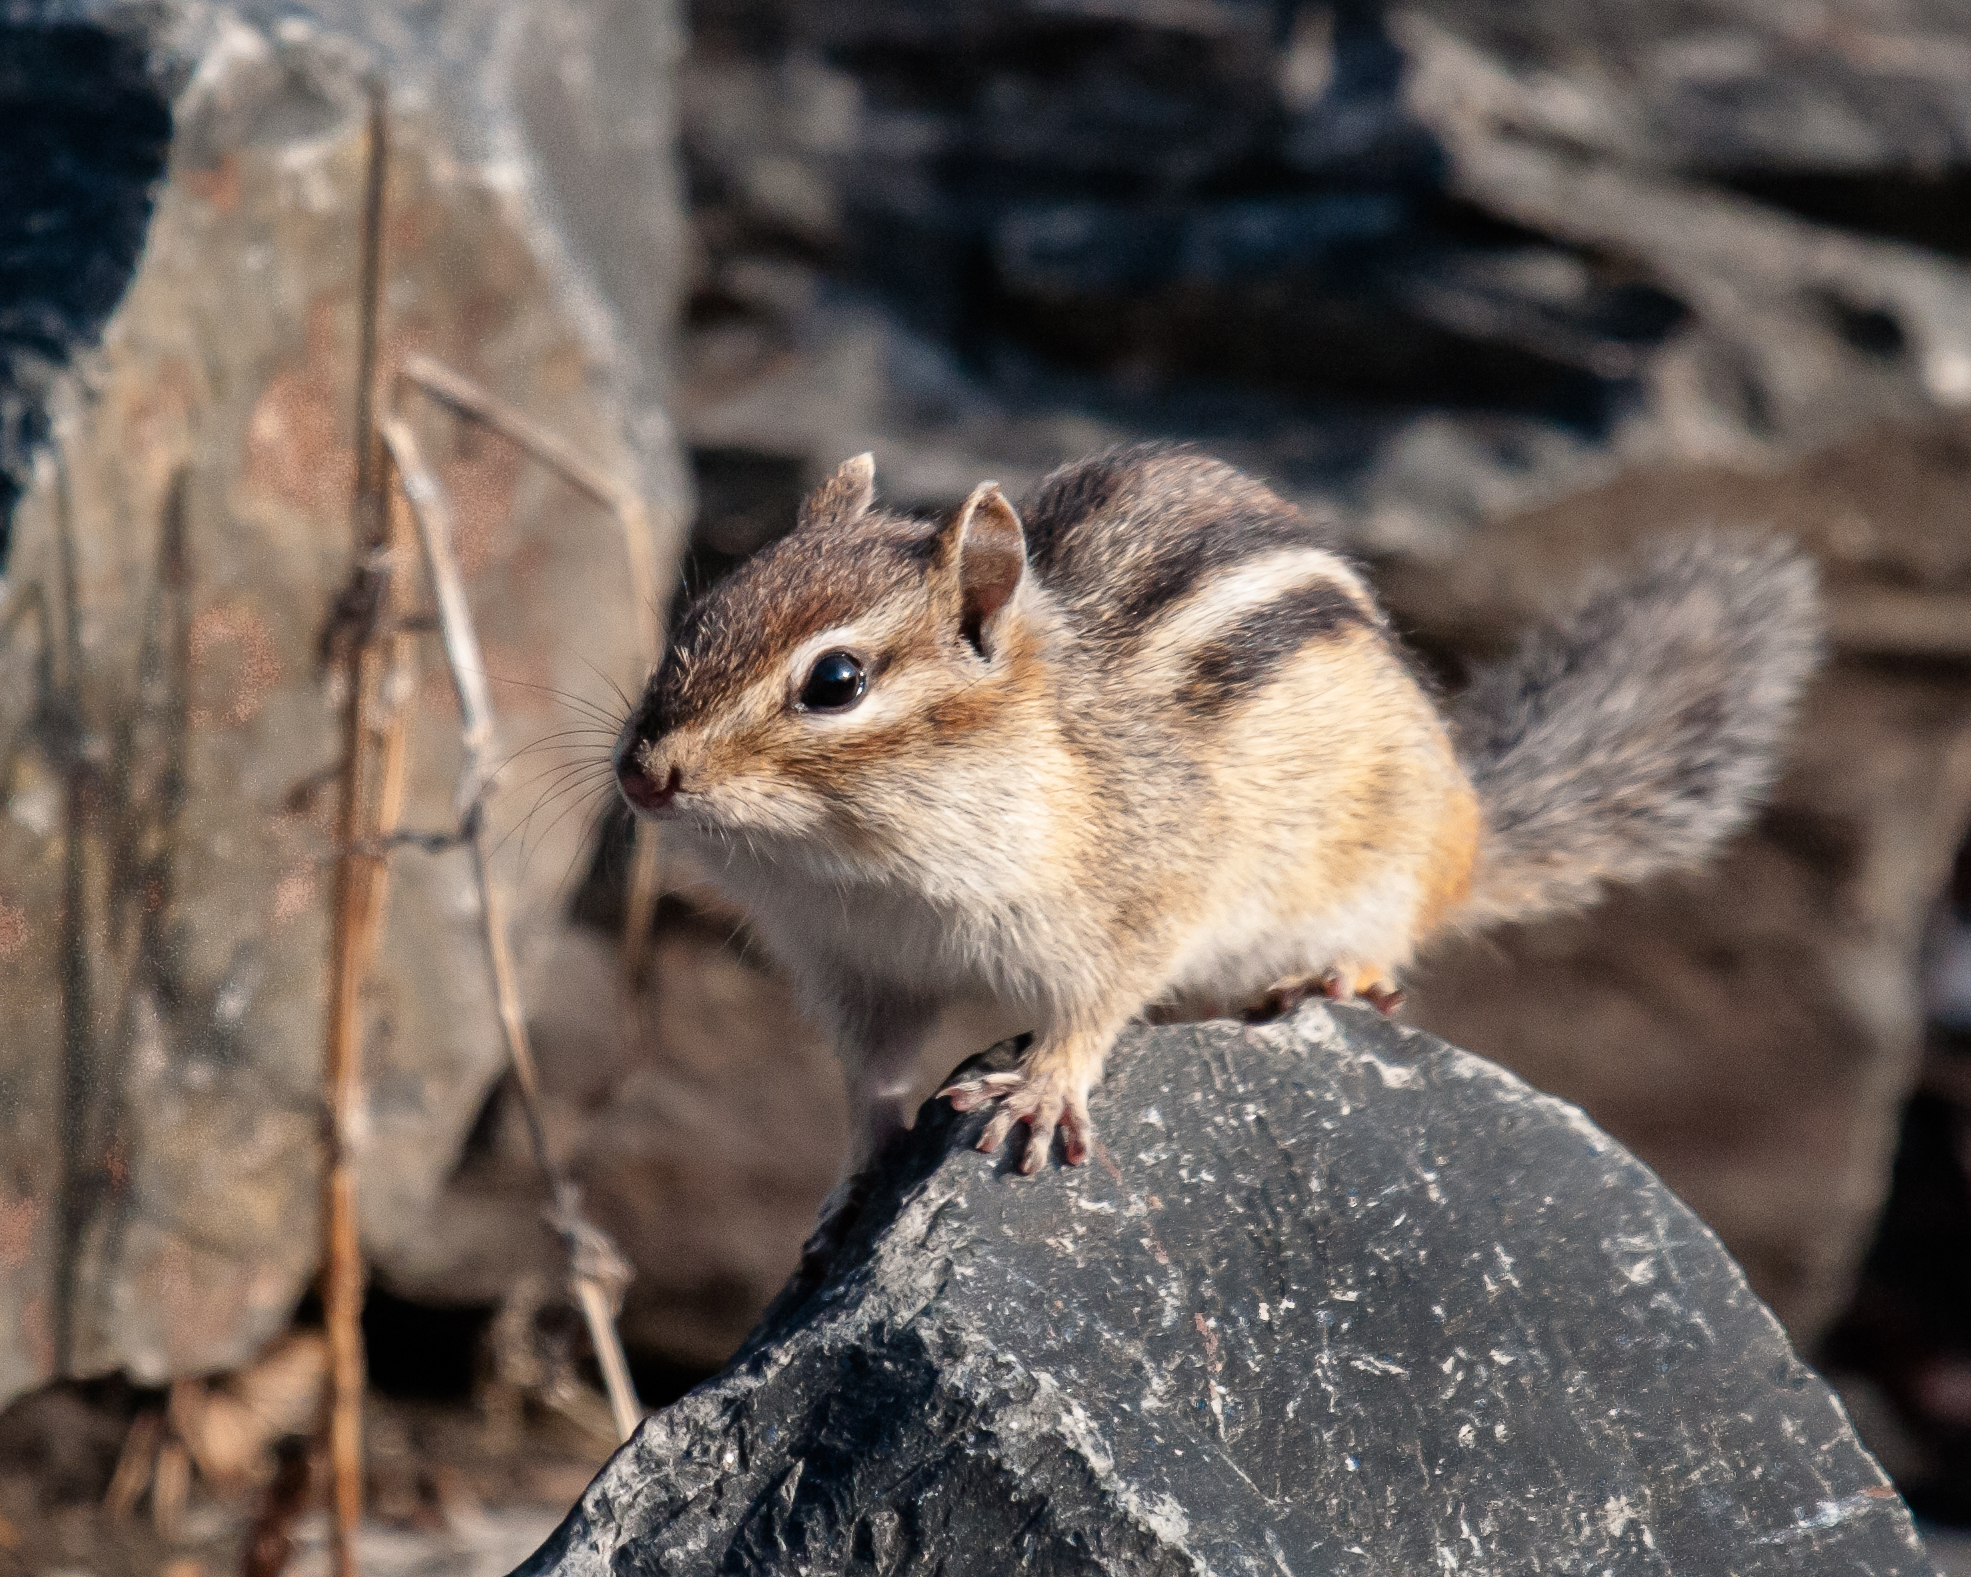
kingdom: Animalia
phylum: Chordata
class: Mammalia
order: Rodentia
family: Sciuridae
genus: Tamias
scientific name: Tamias striatus
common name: Eastern chipmunk
